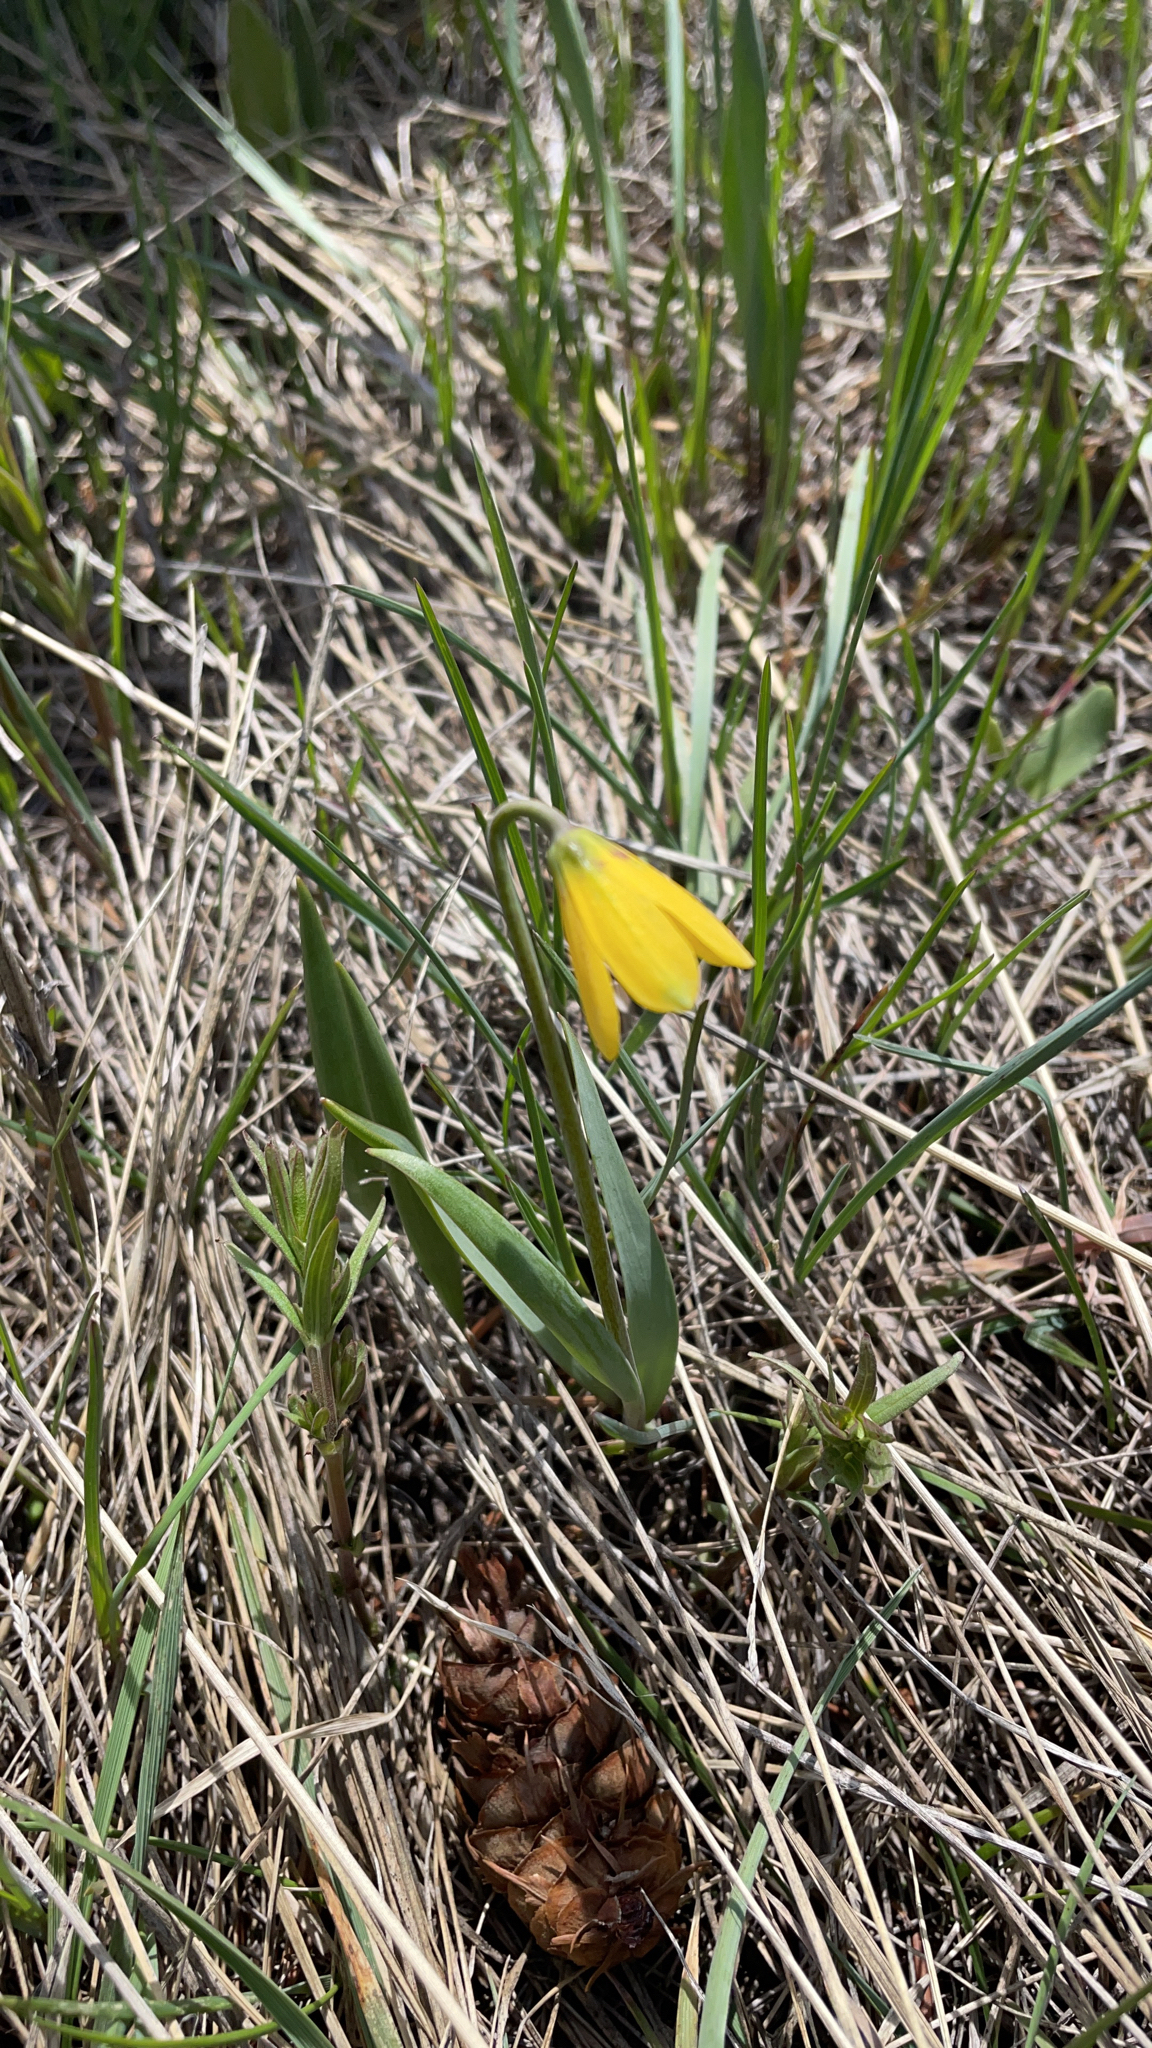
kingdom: Plantae
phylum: Tracheophyta
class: Liliopsida
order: Liliales
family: Liliaceae
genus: Fritillaria
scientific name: Fritillaria pudica
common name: Yellow fritillary
